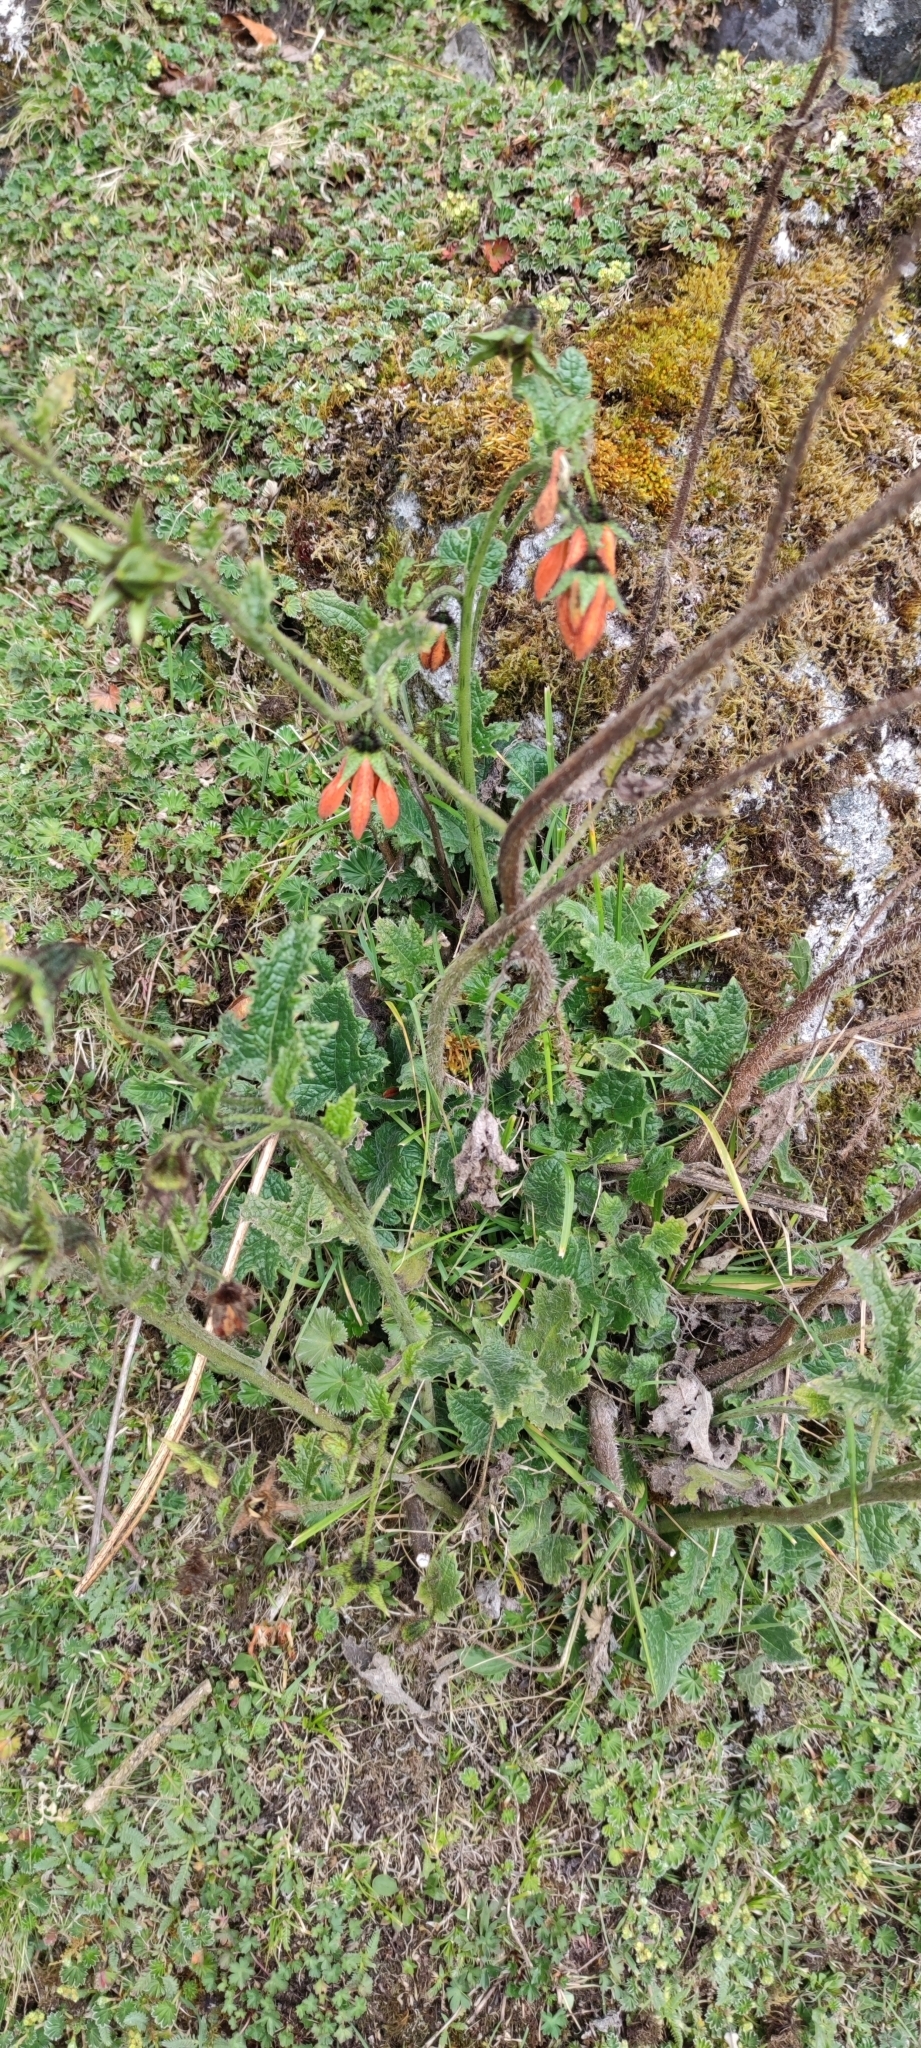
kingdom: Plantae
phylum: Tracheophyta
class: Magnoliopsida
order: Cornales
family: Loasaceae
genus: Nasa
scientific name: Nasa ranunculifolia
